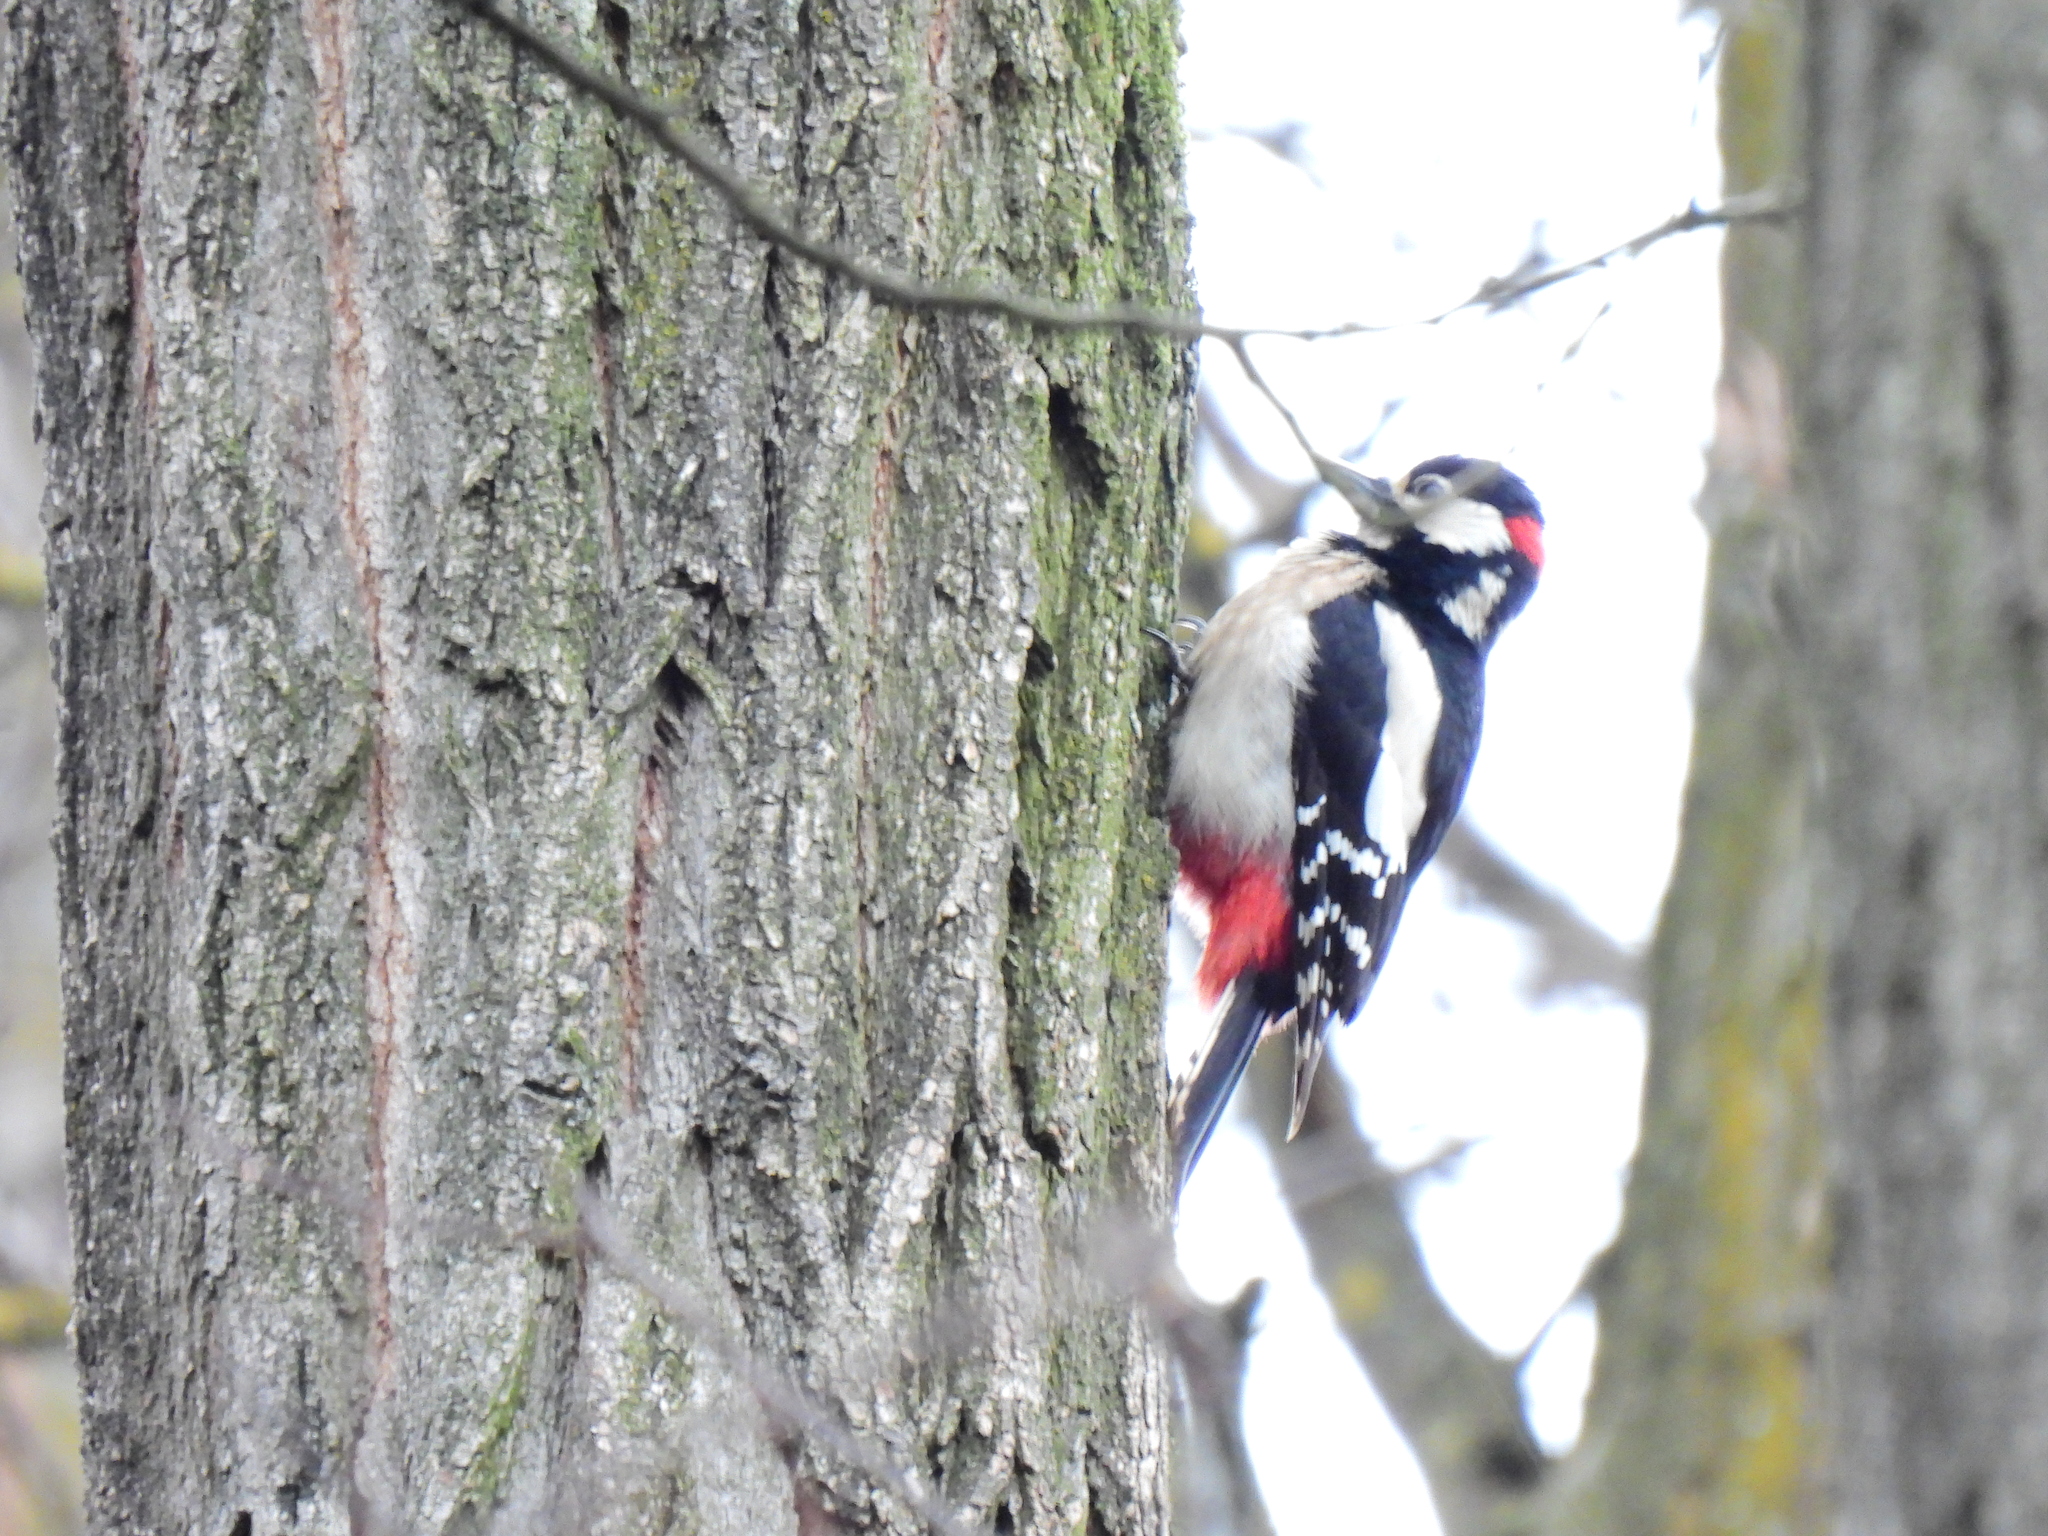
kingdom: Animalia
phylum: Chordata
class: Aves
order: Piciformes
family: Picidae
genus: Dendrocopos
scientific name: Dendrocopos major
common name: Great spotted woodpecker
